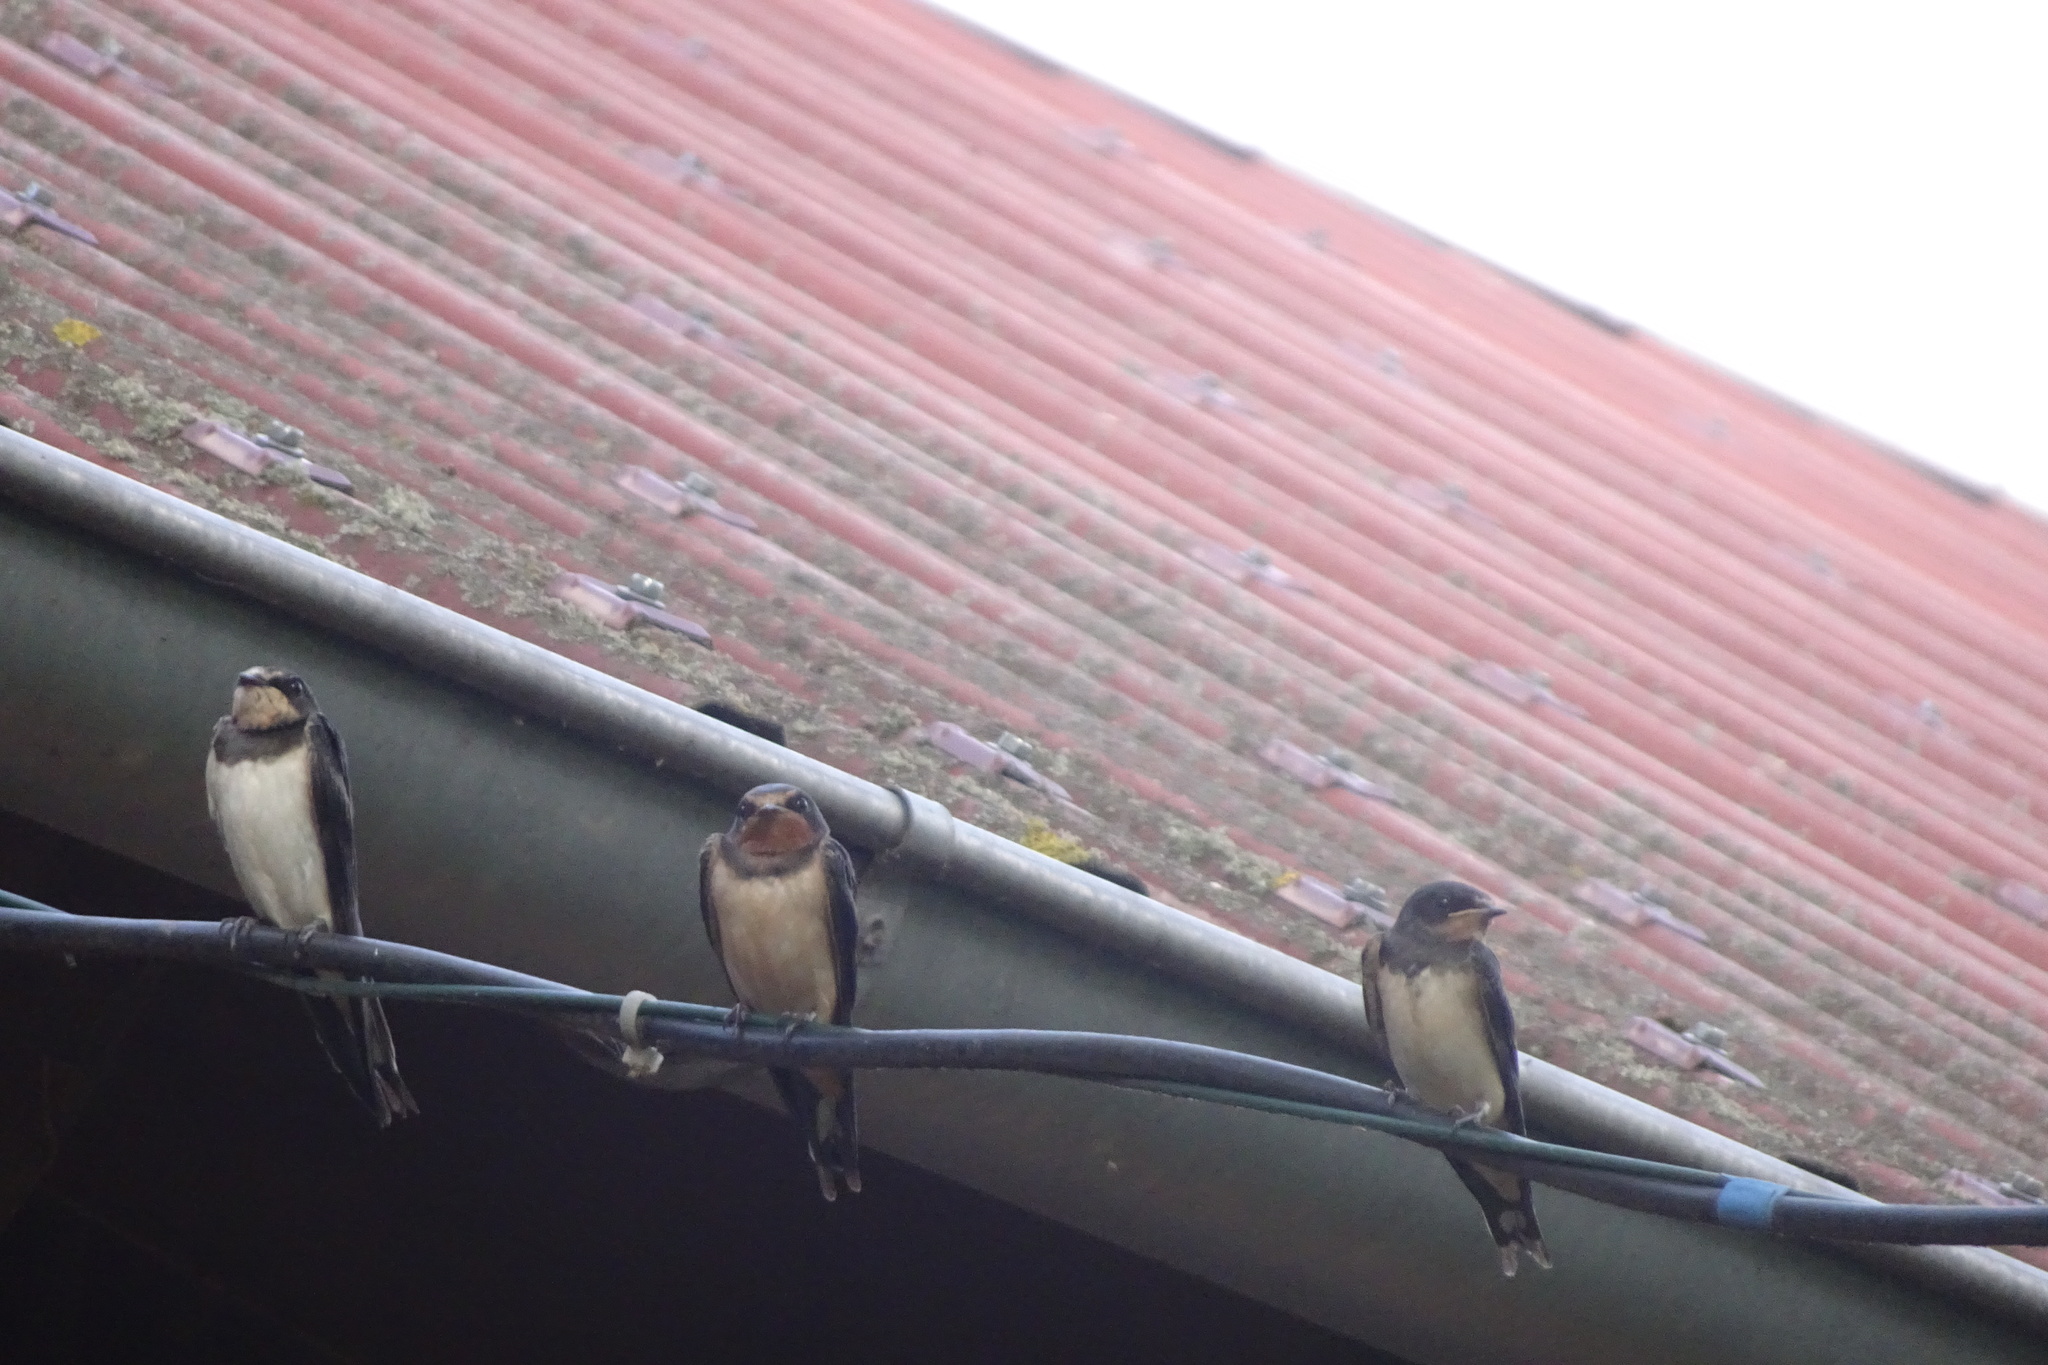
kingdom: Animalia
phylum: Chordata
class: Aves
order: Passeriformes
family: Hirundinidae
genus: Hirundo
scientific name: Hirundo rustica
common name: Barn swallow
